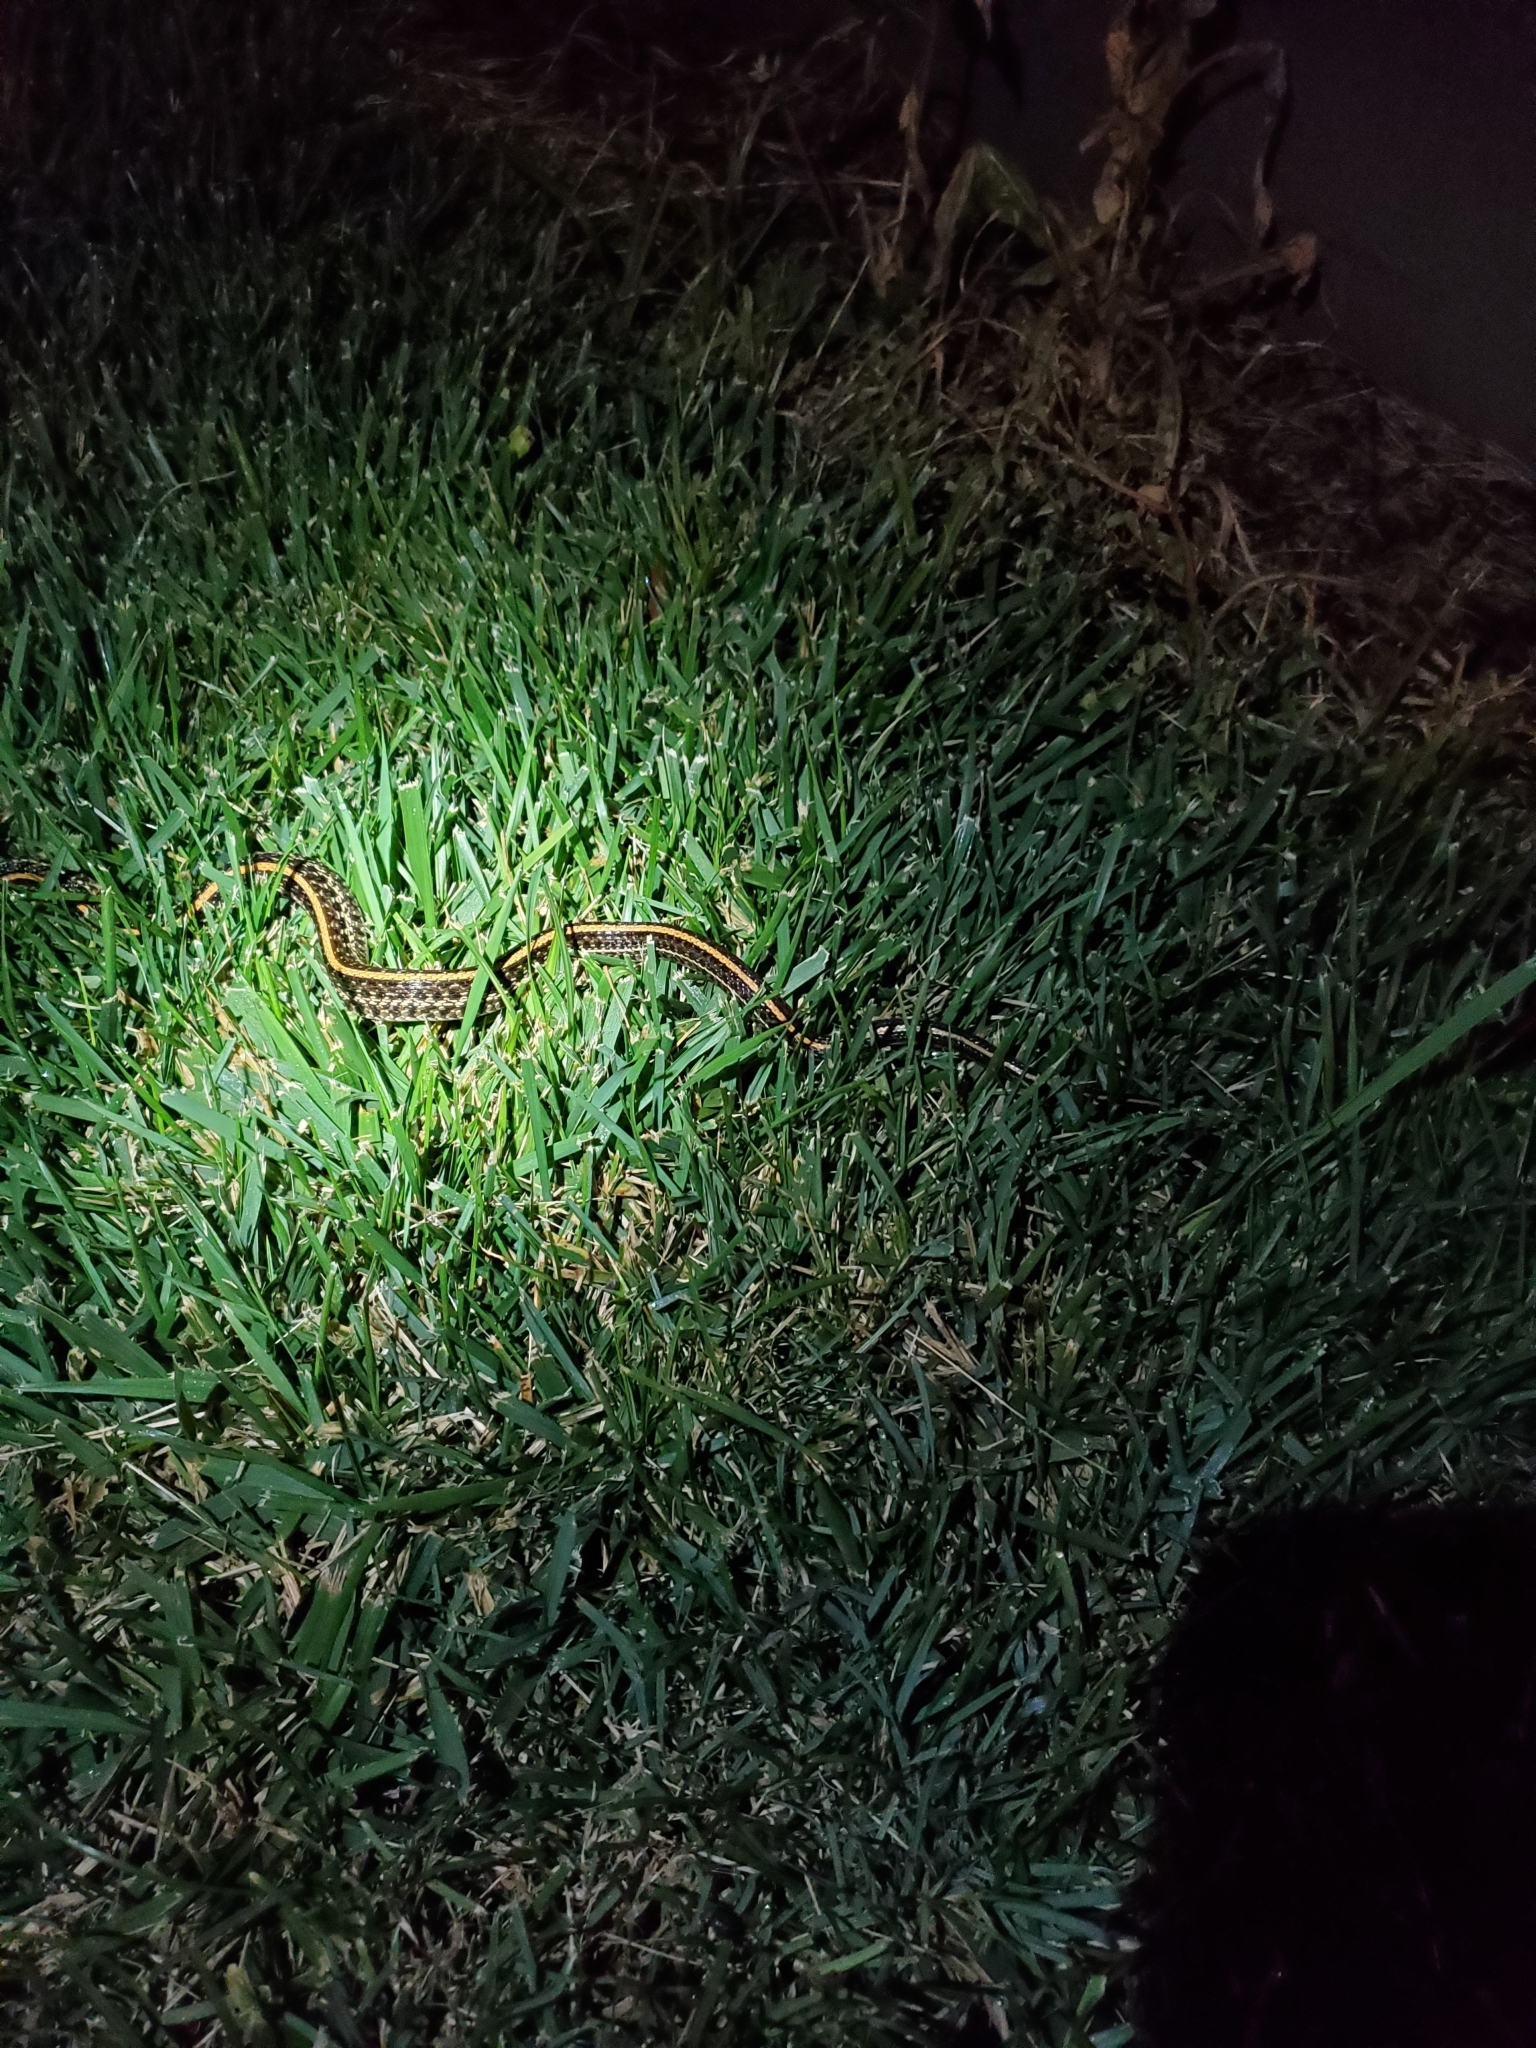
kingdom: Animalia
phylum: Chordata
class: Squamata
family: Colubridae
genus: Thamnophis
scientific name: Thamnophis radix
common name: Plains garter snake
